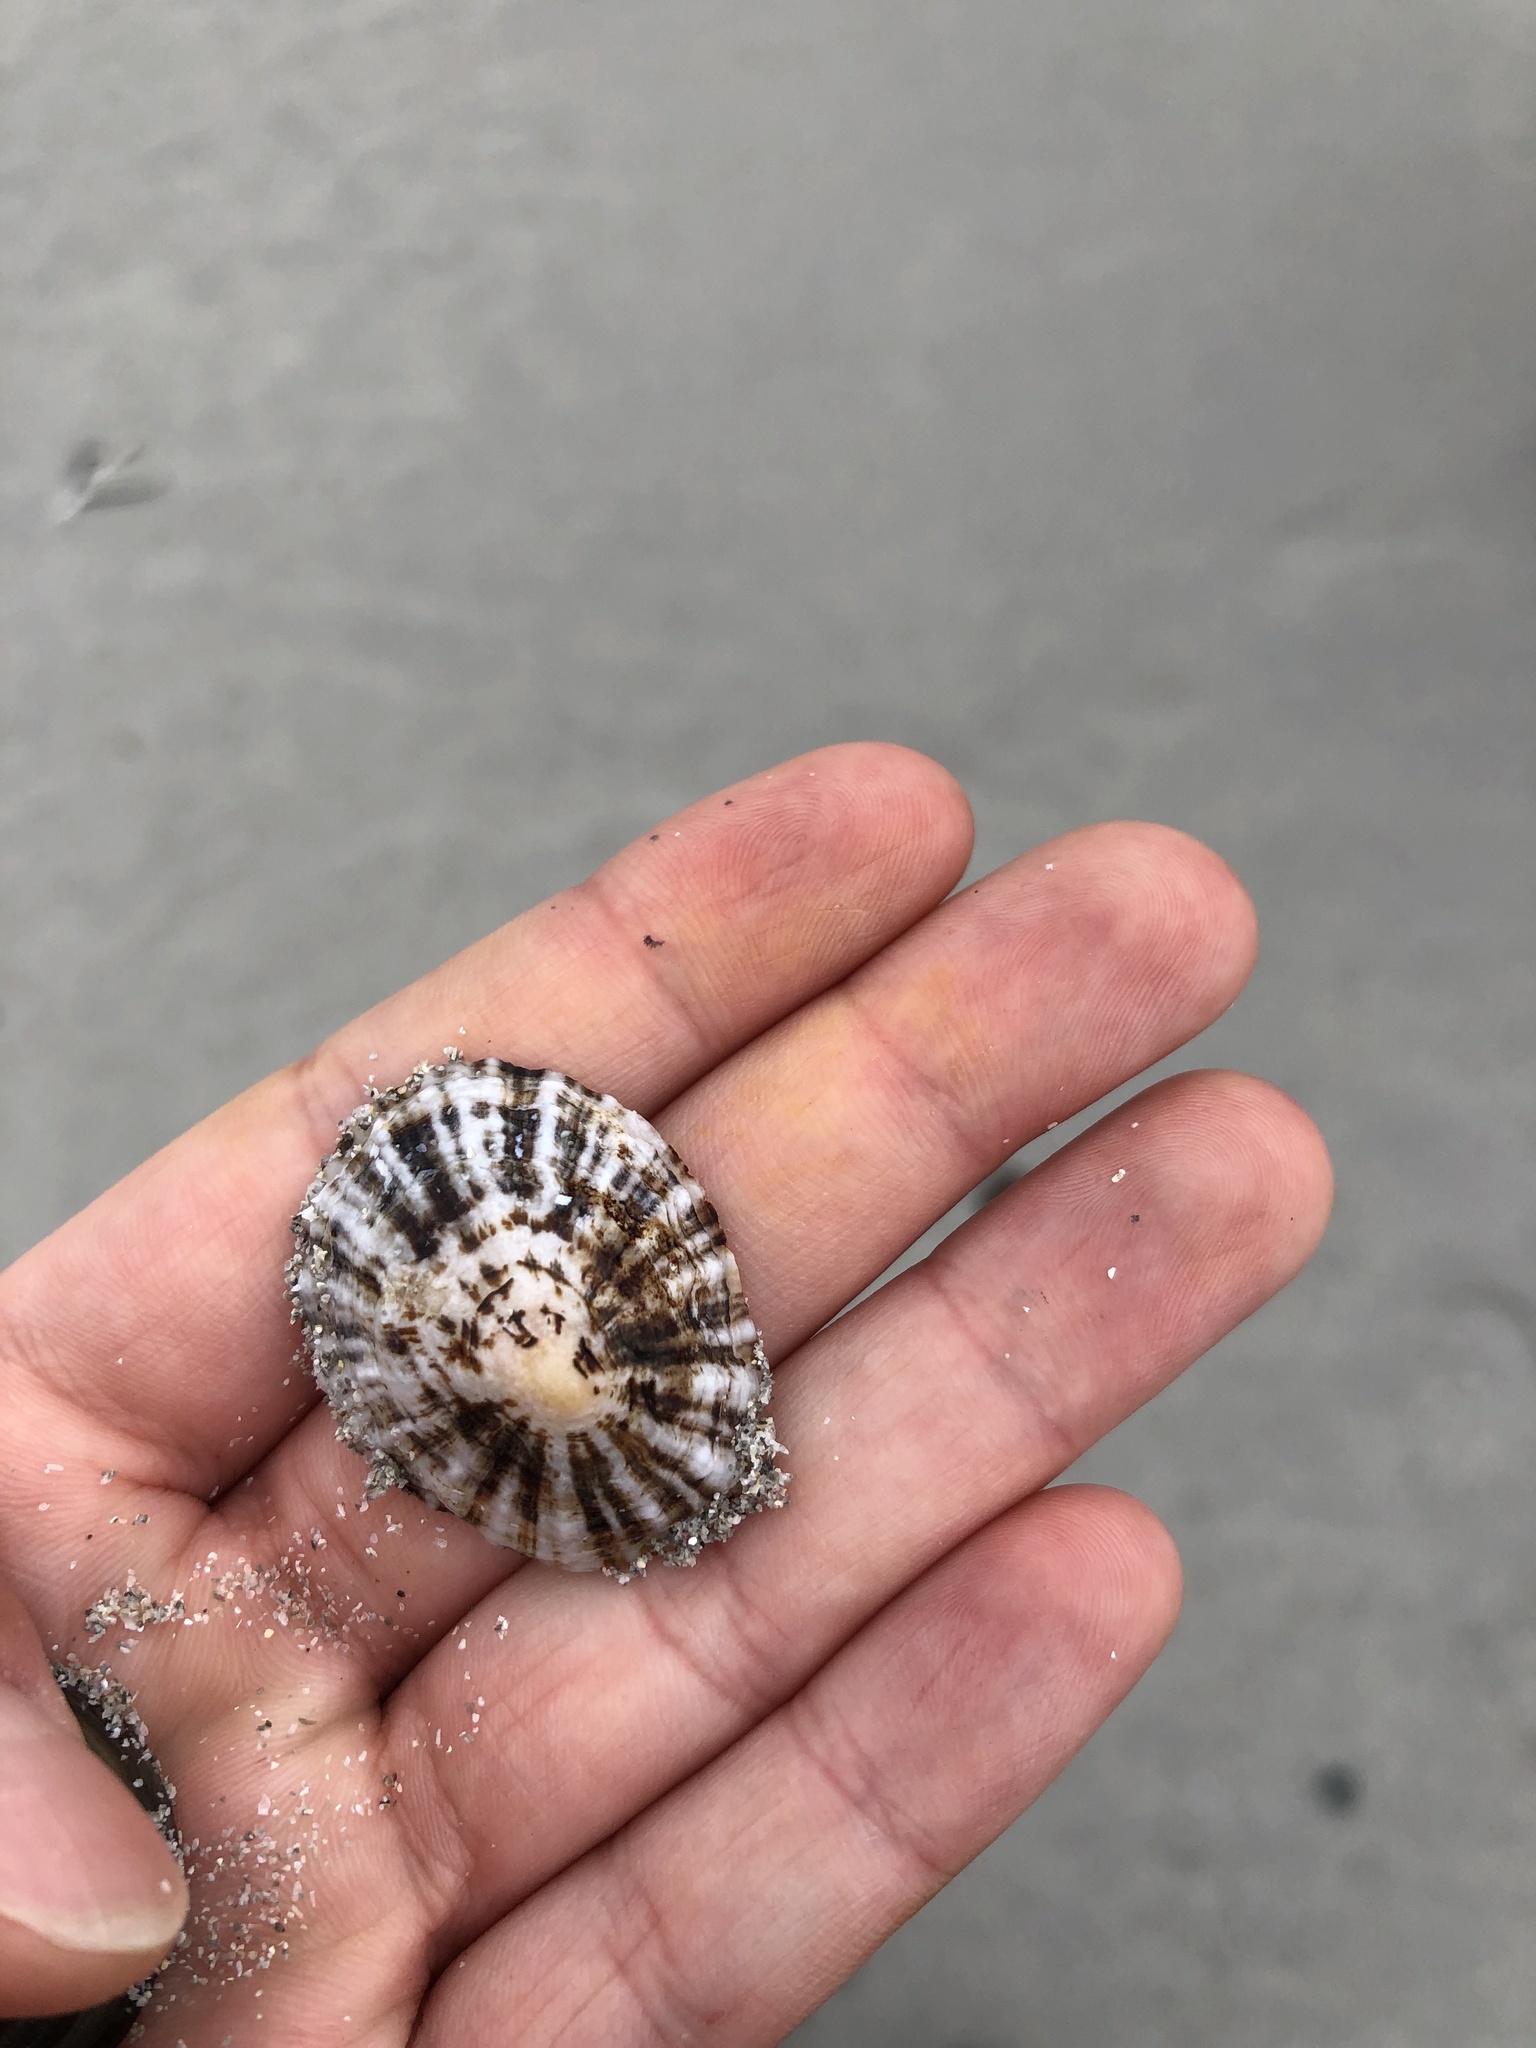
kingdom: Animalia
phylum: Mollusca
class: Gastropoda
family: Patellidae
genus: Patella
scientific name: Patella
